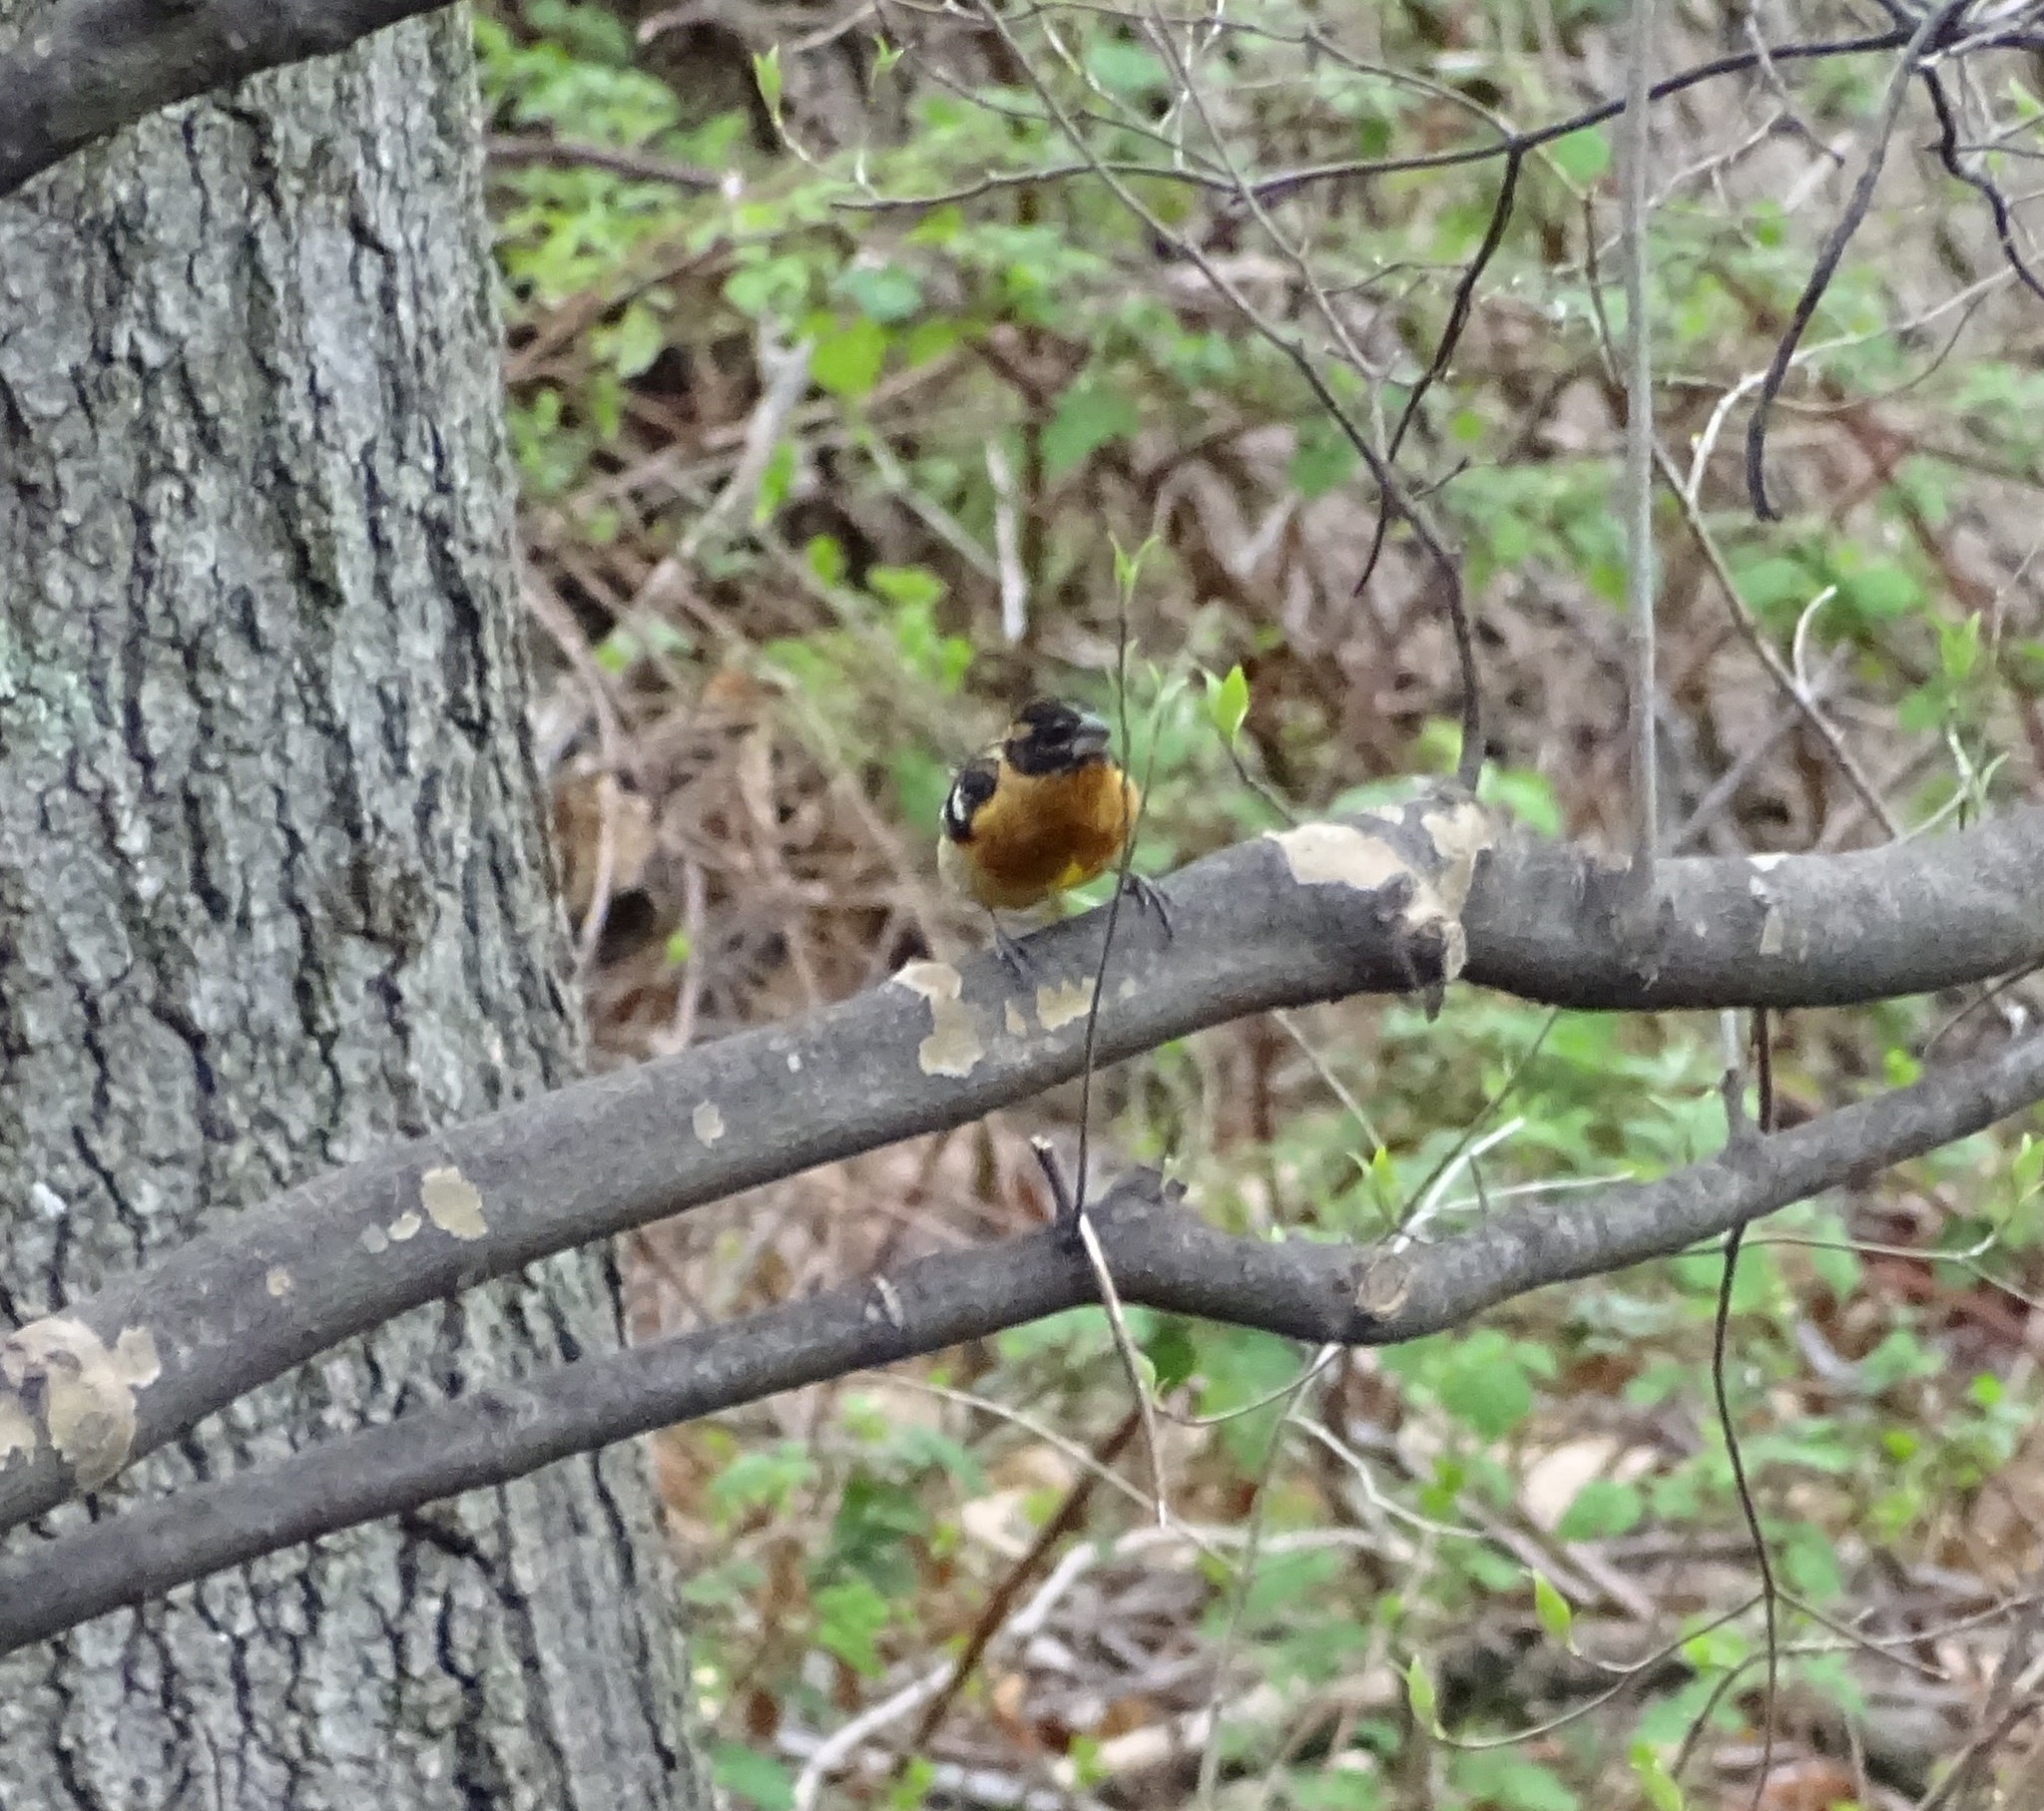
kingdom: Animalia
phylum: Chordata
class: Aves
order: Passeriformes
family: Cardinalidae
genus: Pheucticus
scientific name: Pheucticus melanocephalus
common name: Black-headed grosbeak
